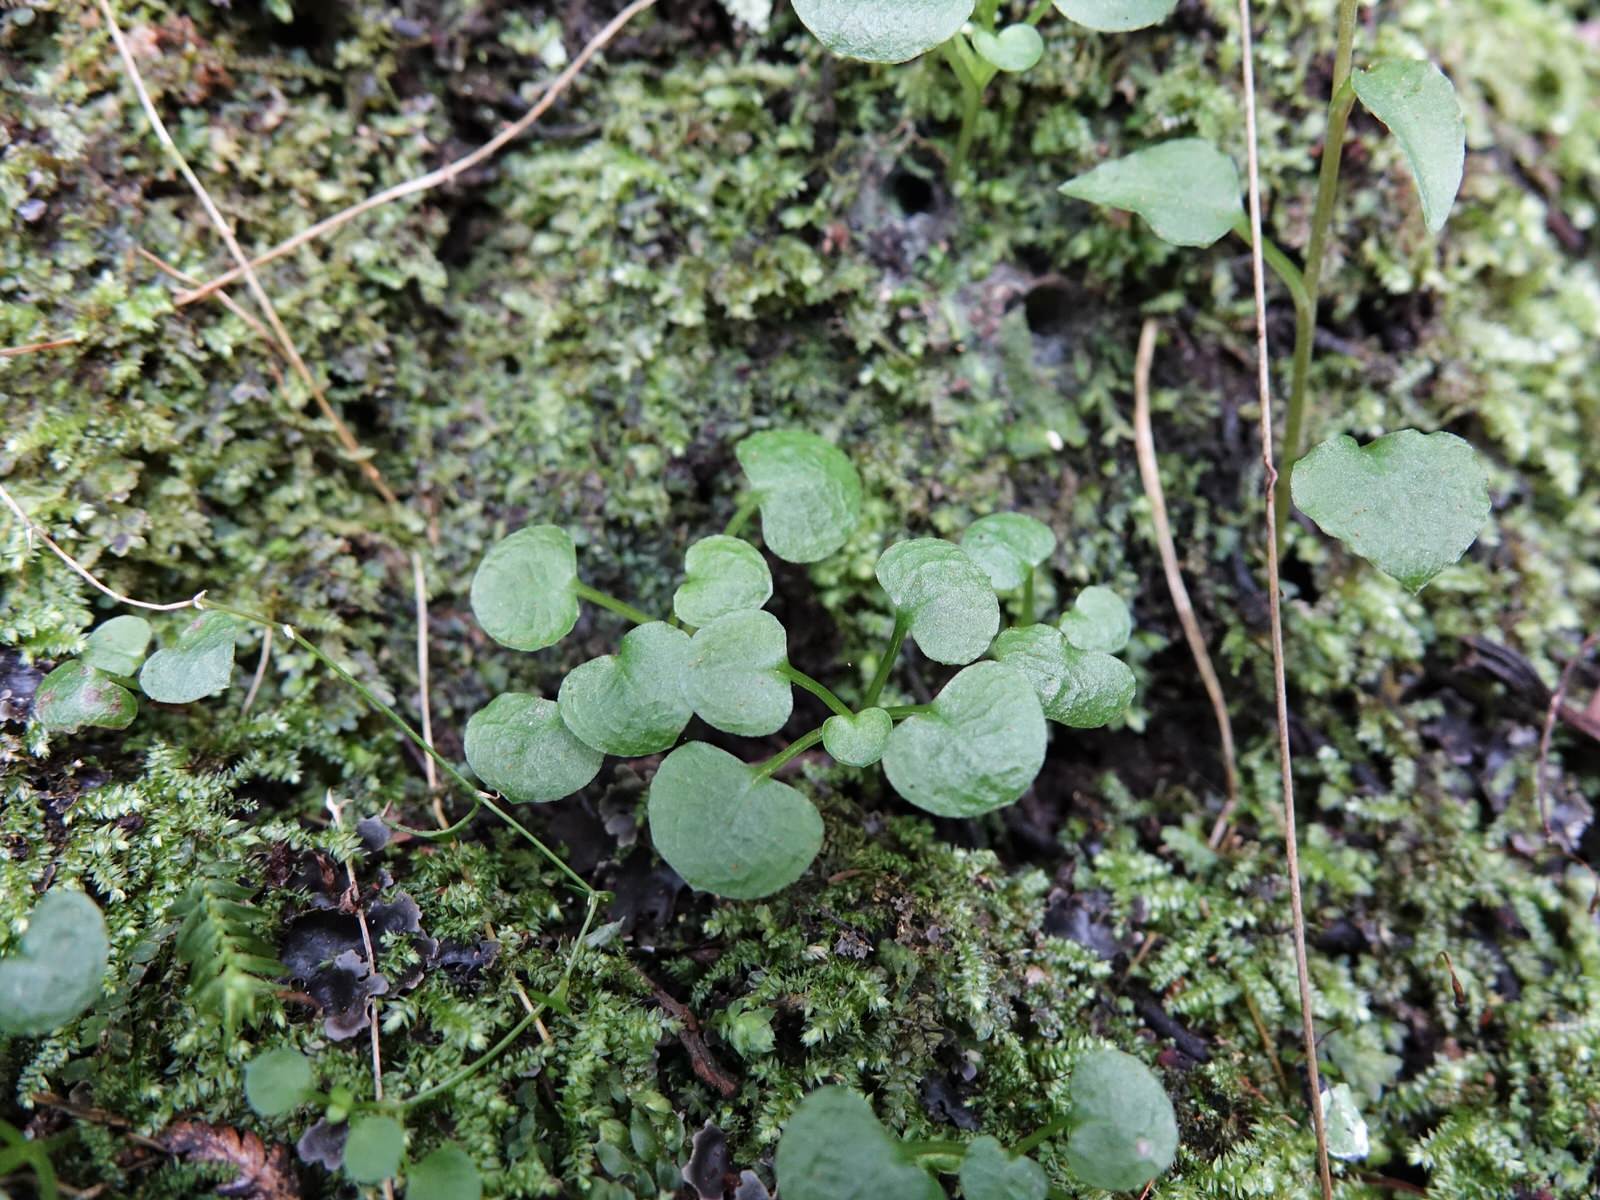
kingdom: Plantae
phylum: Tracheophyta
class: Liliopsida
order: Asparagales
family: Orchidaceae
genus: Pterostylis
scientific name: Pterostylis alobula
